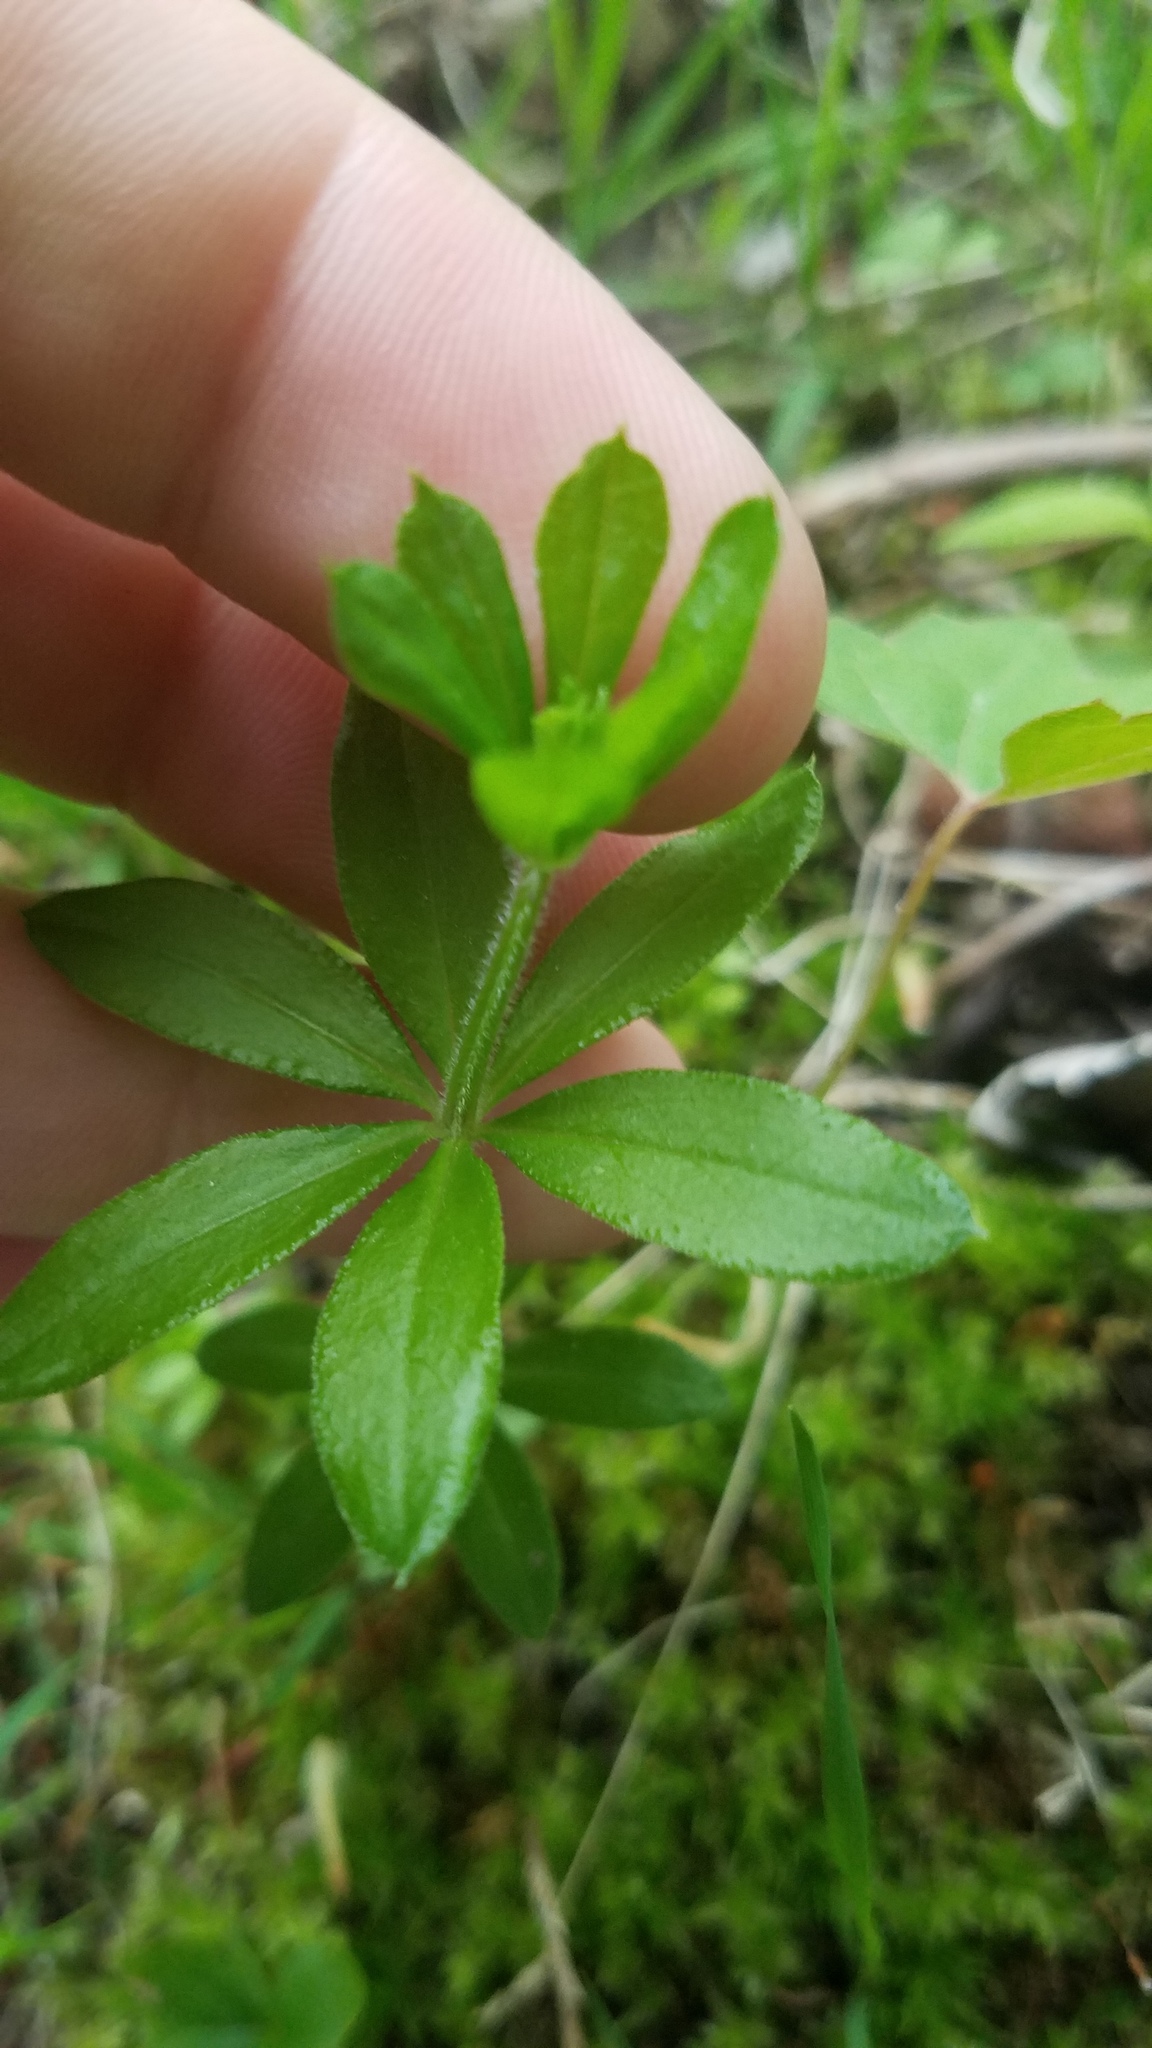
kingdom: Plantae
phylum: Tracheophyta
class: Magnoliopsida
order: Gentianales
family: Rubiaceae
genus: Galium
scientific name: Galium triflorum
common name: Fragrant bedstraw
